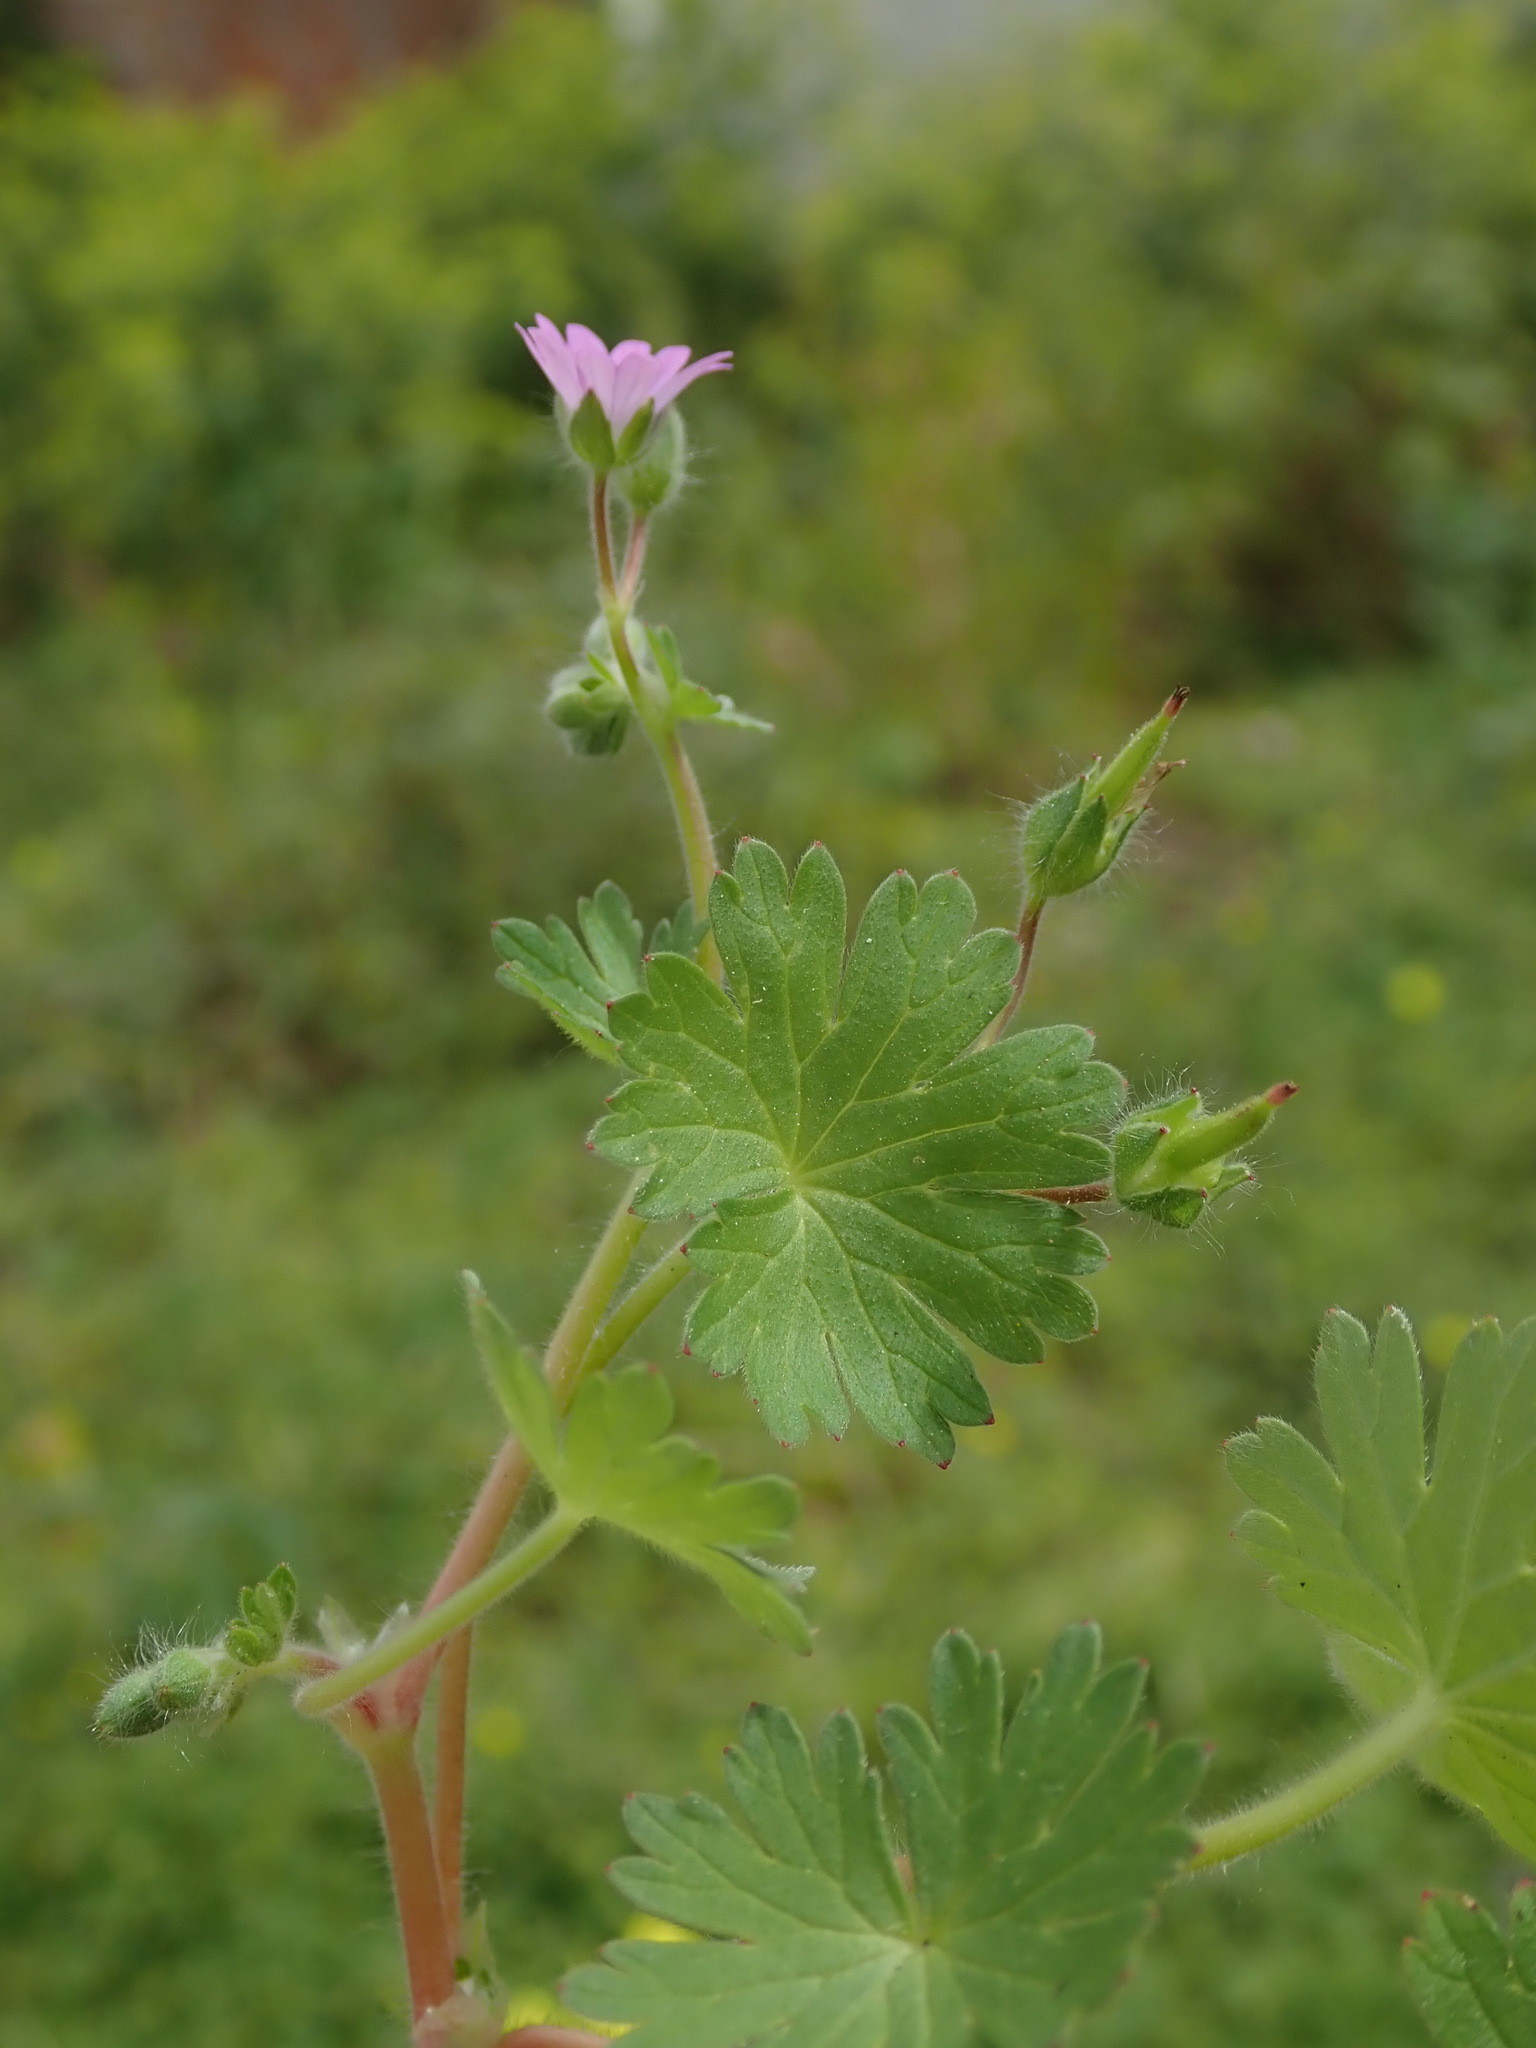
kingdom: Plantae
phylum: Tracheophyta
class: Magnoliopsida
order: Geraniales
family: Geraniaceae
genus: Geranium
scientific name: Geranium molle
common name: Dove's-foot crane's-bill
